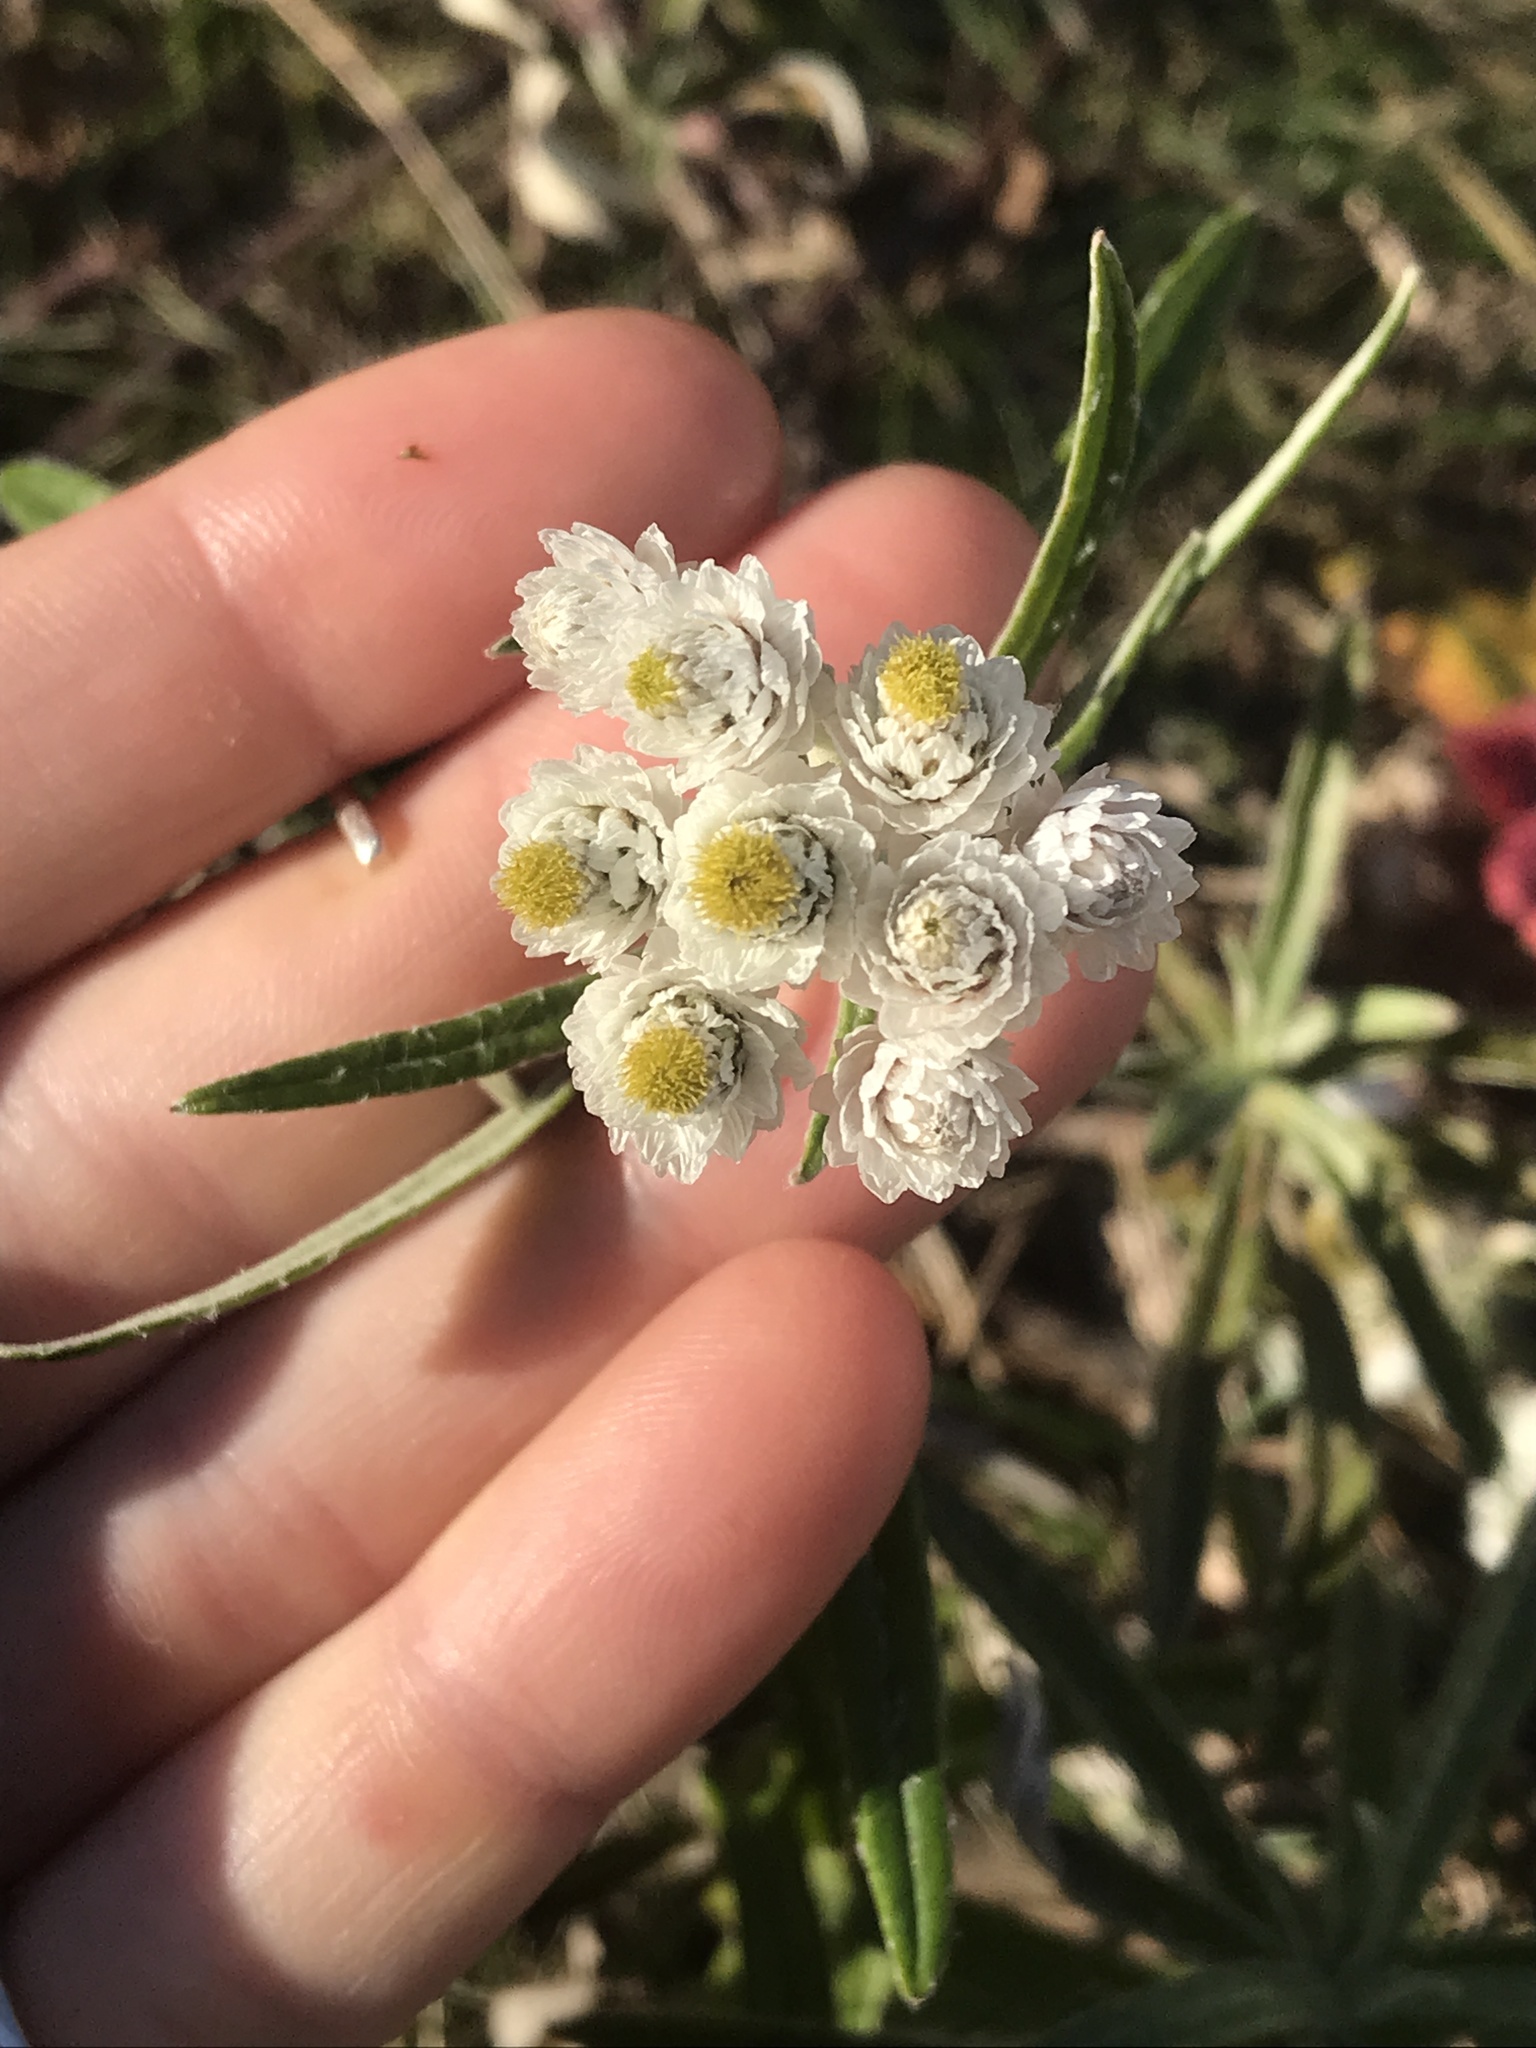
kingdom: Plantae
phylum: Tracheophyta
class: Magnoliopsida
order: Asterales
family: Asteraceae
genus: Anaphalis
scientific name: Anaphalis margaritacea
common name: Pearly everlasting
